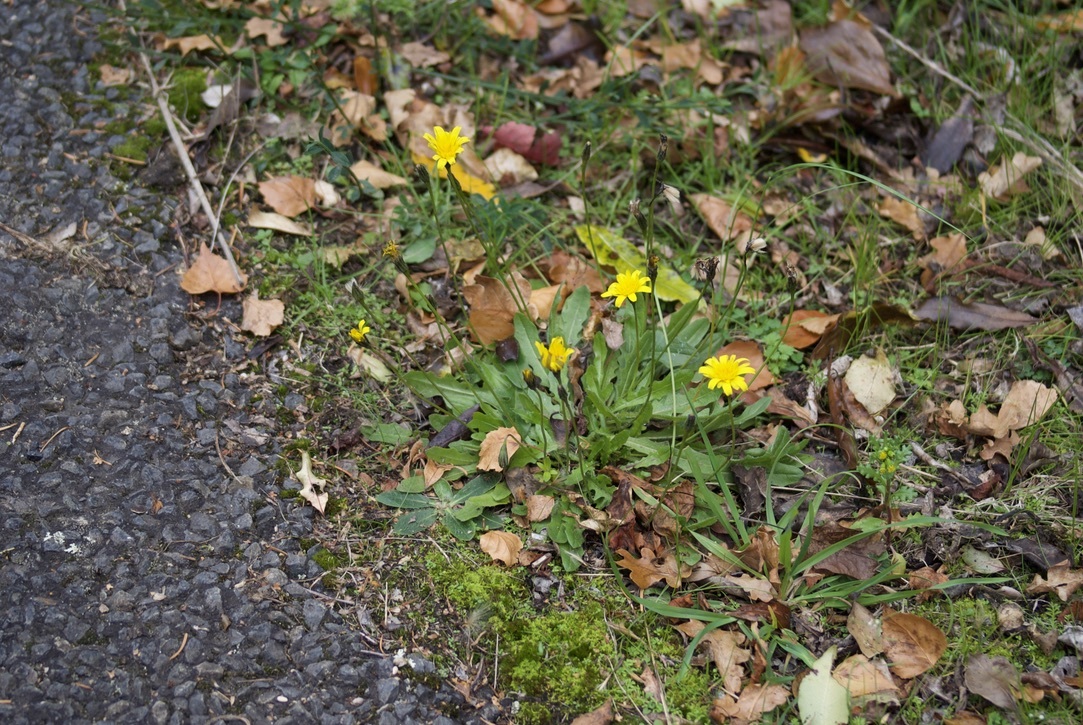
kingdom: Plantae
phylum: Tracheophyta
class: Magnoliopsida
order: Asterales
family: Asteraceae
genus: Thrincia
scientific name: Thrincia saxatilis
